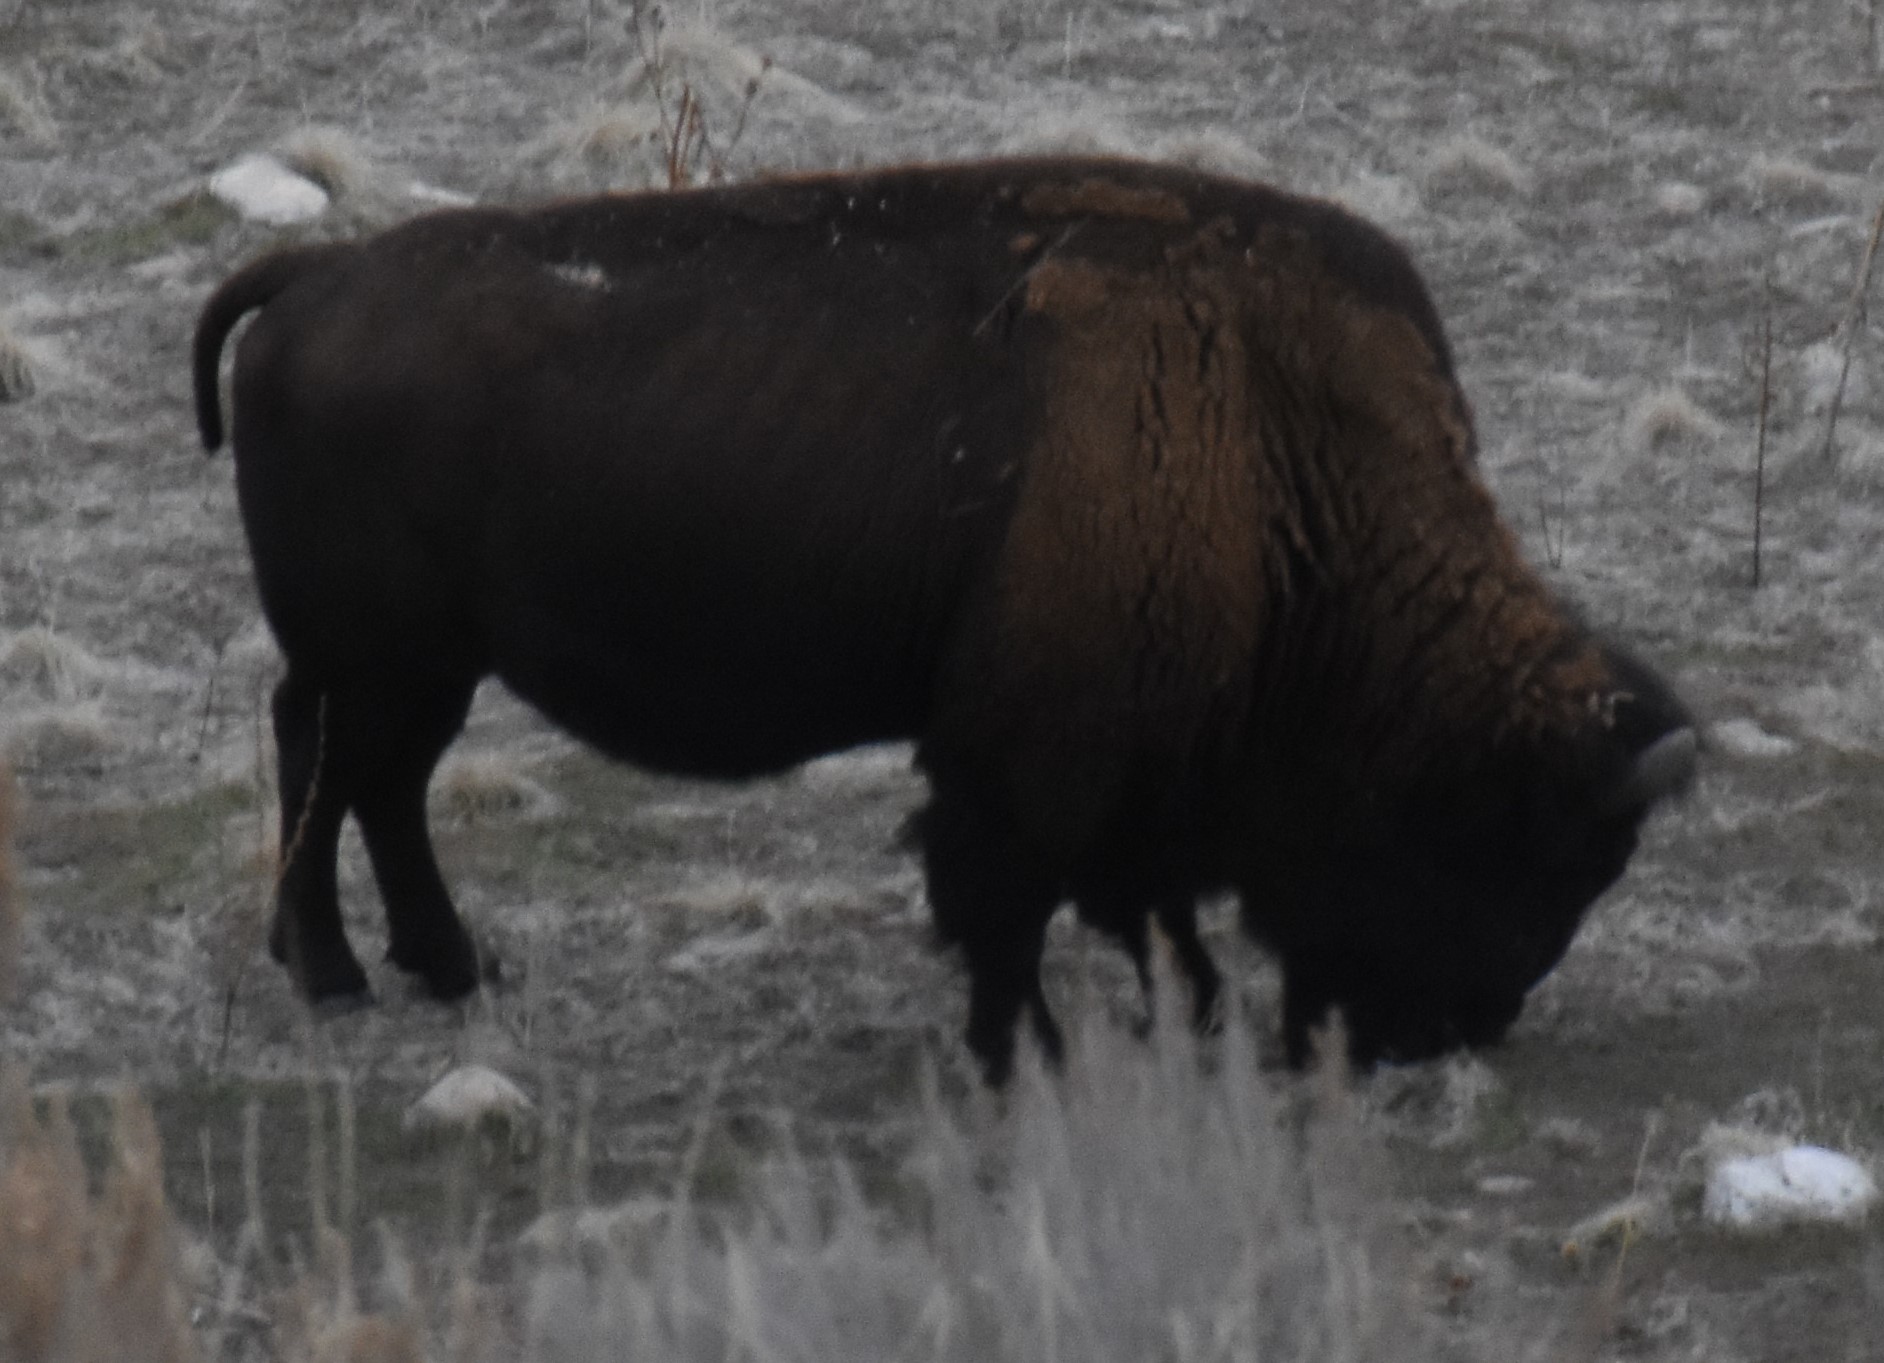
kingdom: Animalia
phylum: Chordata
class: Mammalia
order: Artiodactyla
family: Bovidae
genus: Bison
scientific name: Bison bison
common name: American bison
